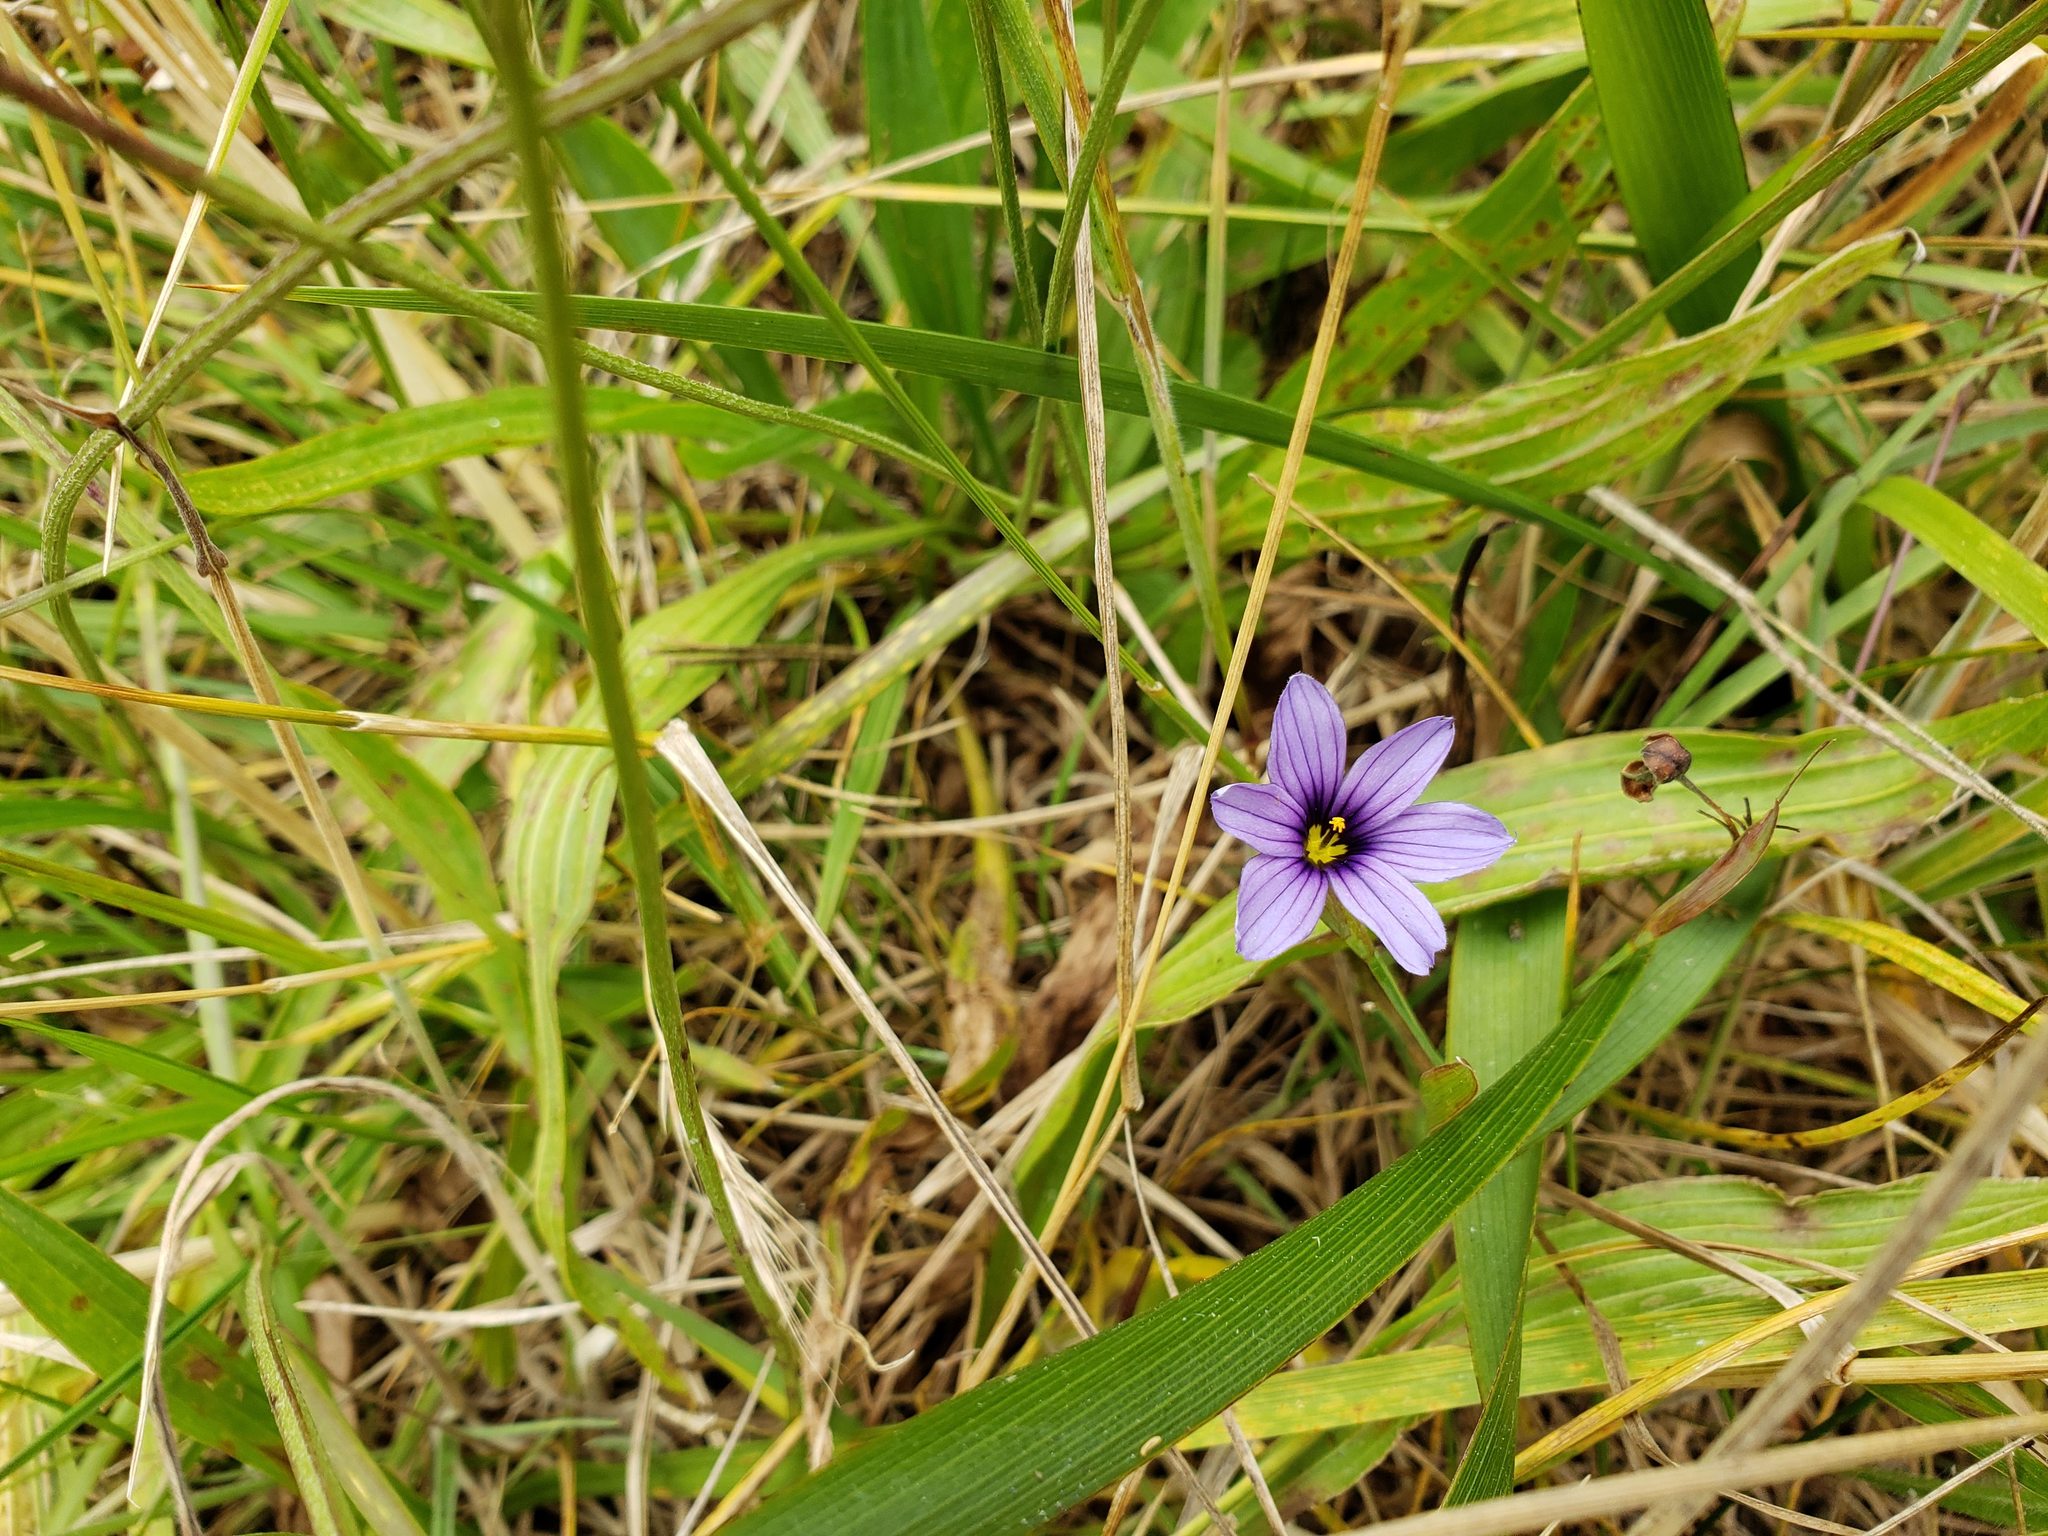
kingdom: Plantae
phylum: Tracheophyta
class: Liliopsida
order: Asparagales
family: Iridaceae
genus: Sisyrinchium
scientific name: Sisyrinchium bellum
